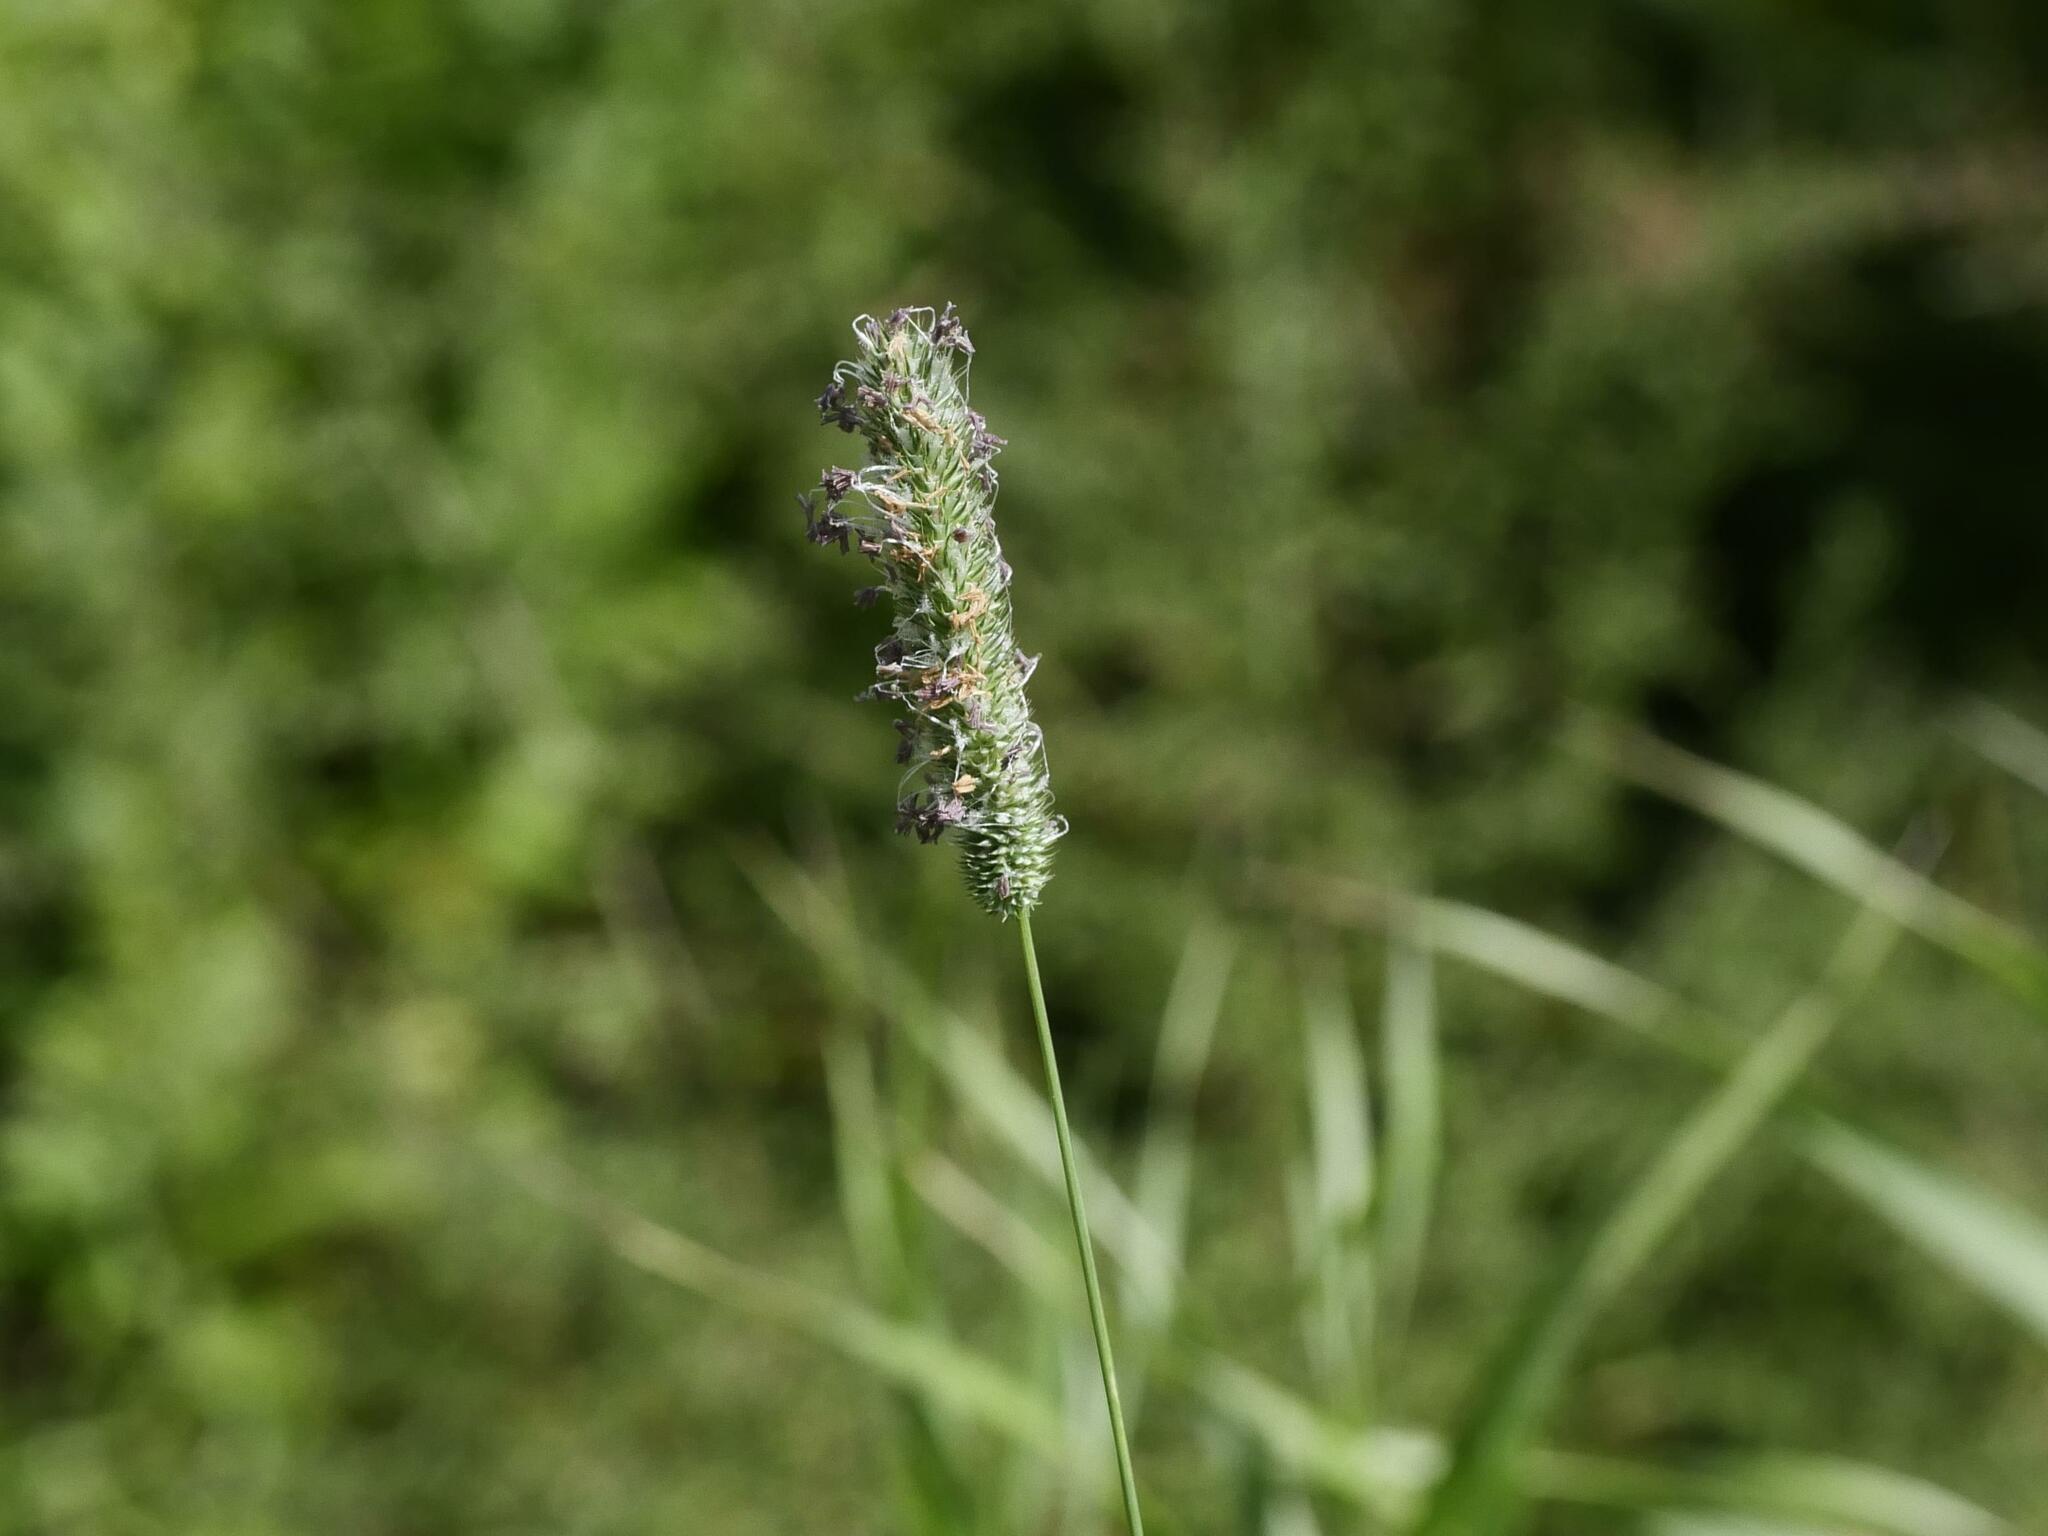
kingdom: Plantae
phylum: Tracheophyta
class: Liliopsida
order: Poales
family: Poaceae
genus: Phleum
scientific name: Phleum pratense
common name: Timothy grass
